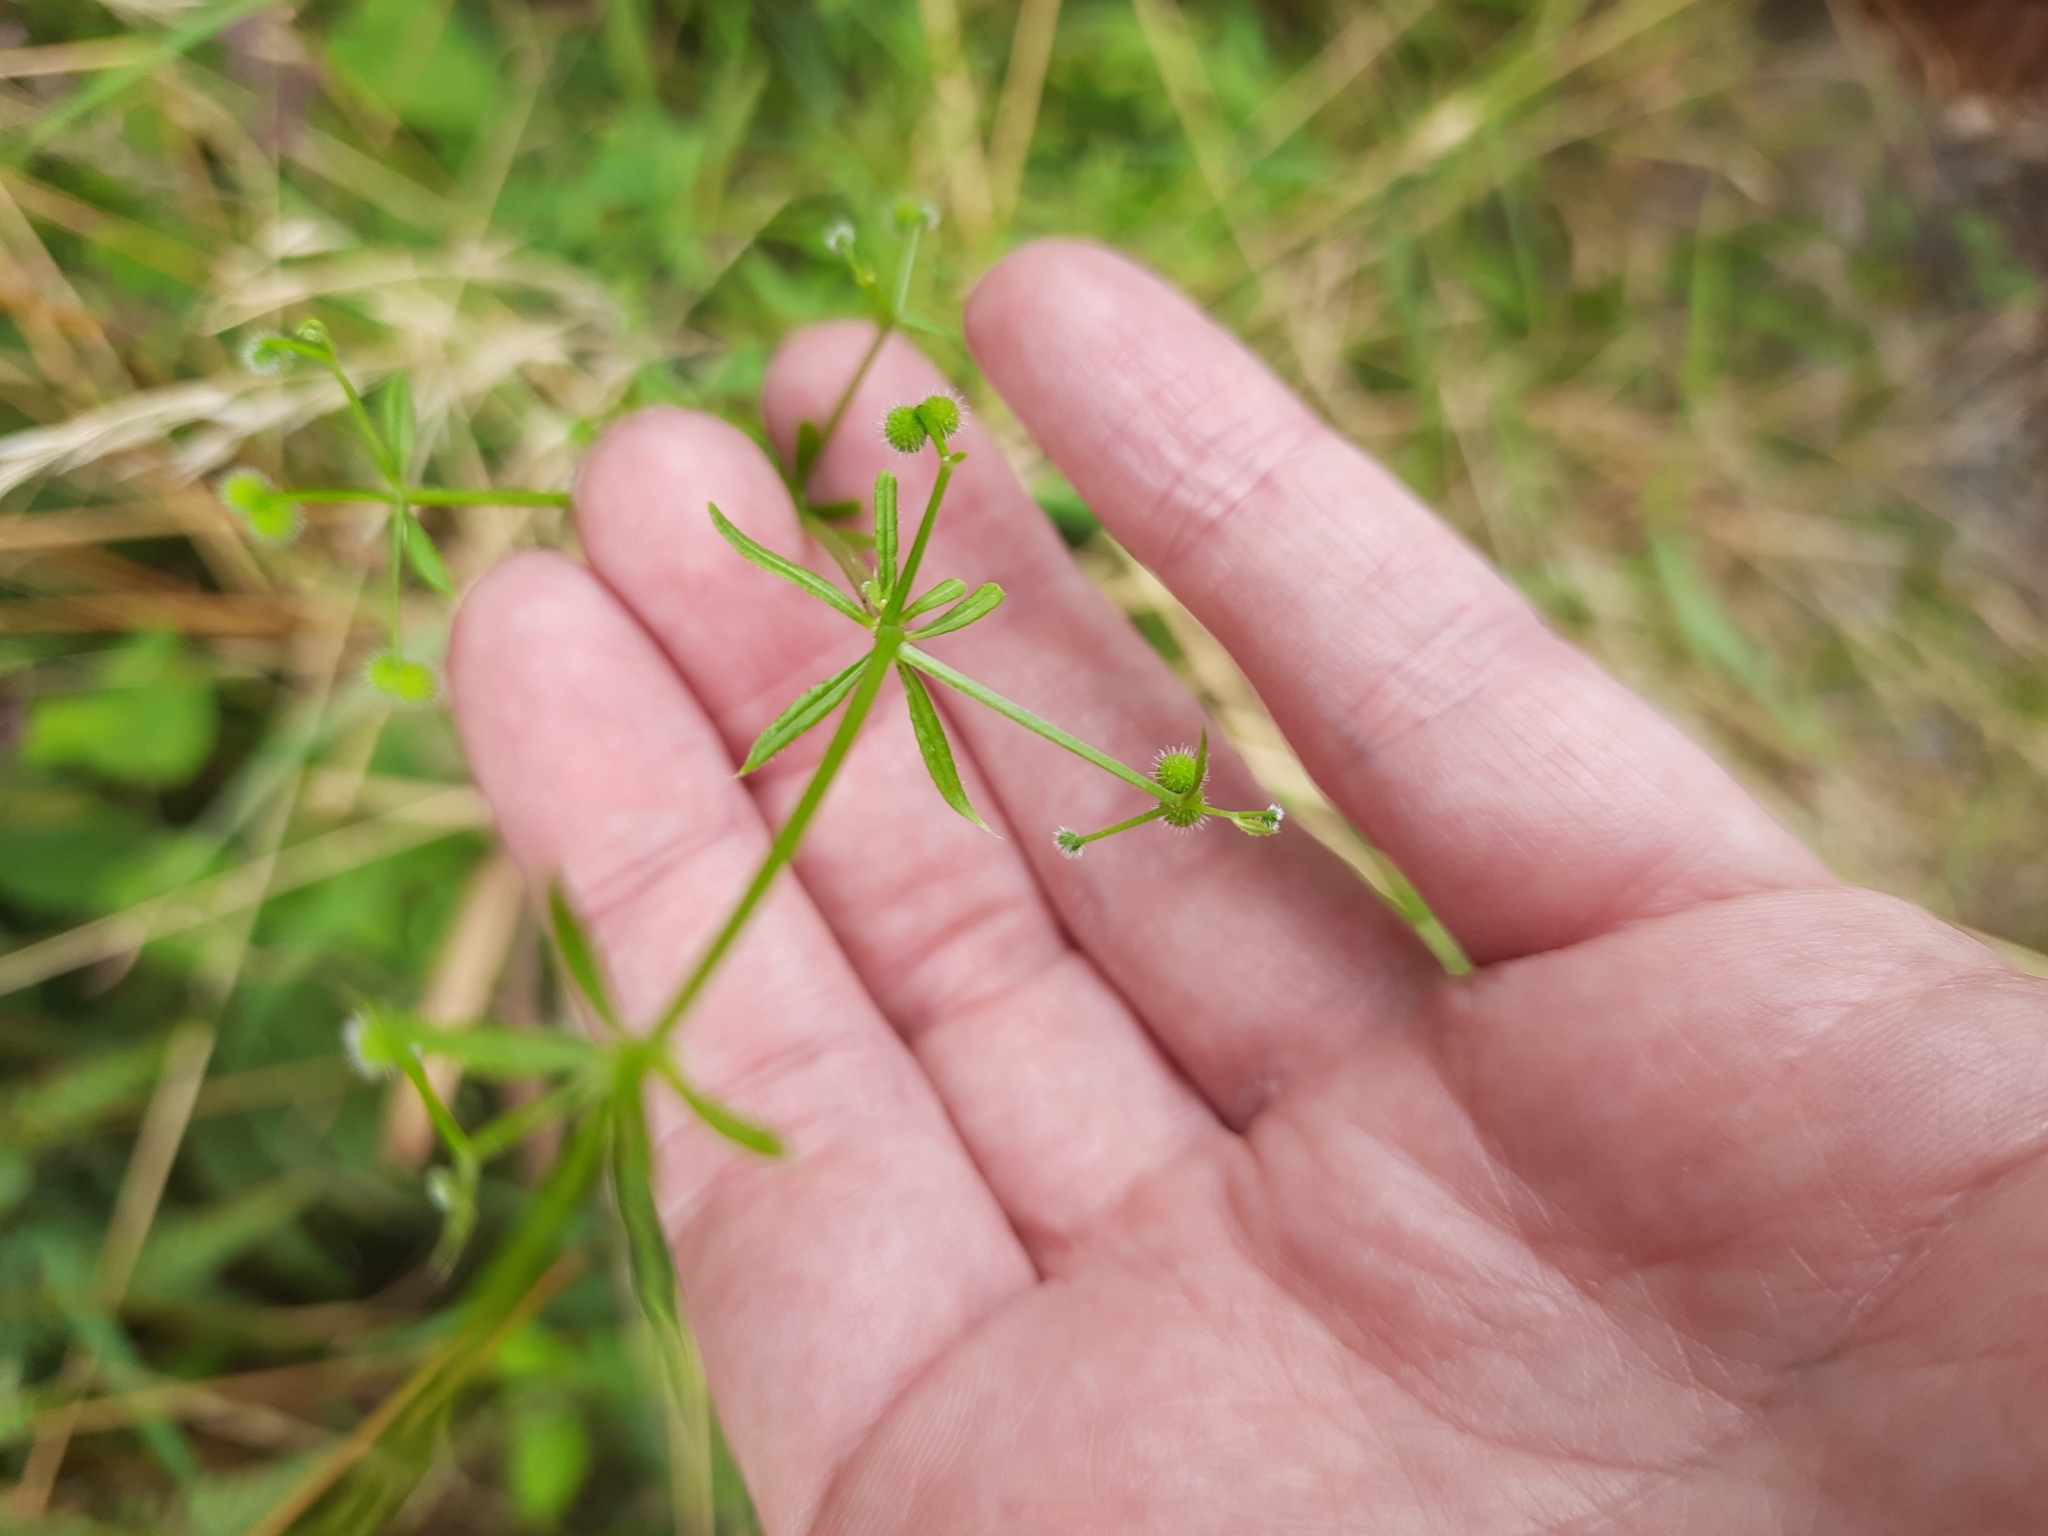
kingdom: Plantae
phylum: Tracheophyta
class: Magnoliopsida
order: Gentianales
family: Rubiaceae
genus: Galium
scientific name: Galium aparine
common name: Cleavers
